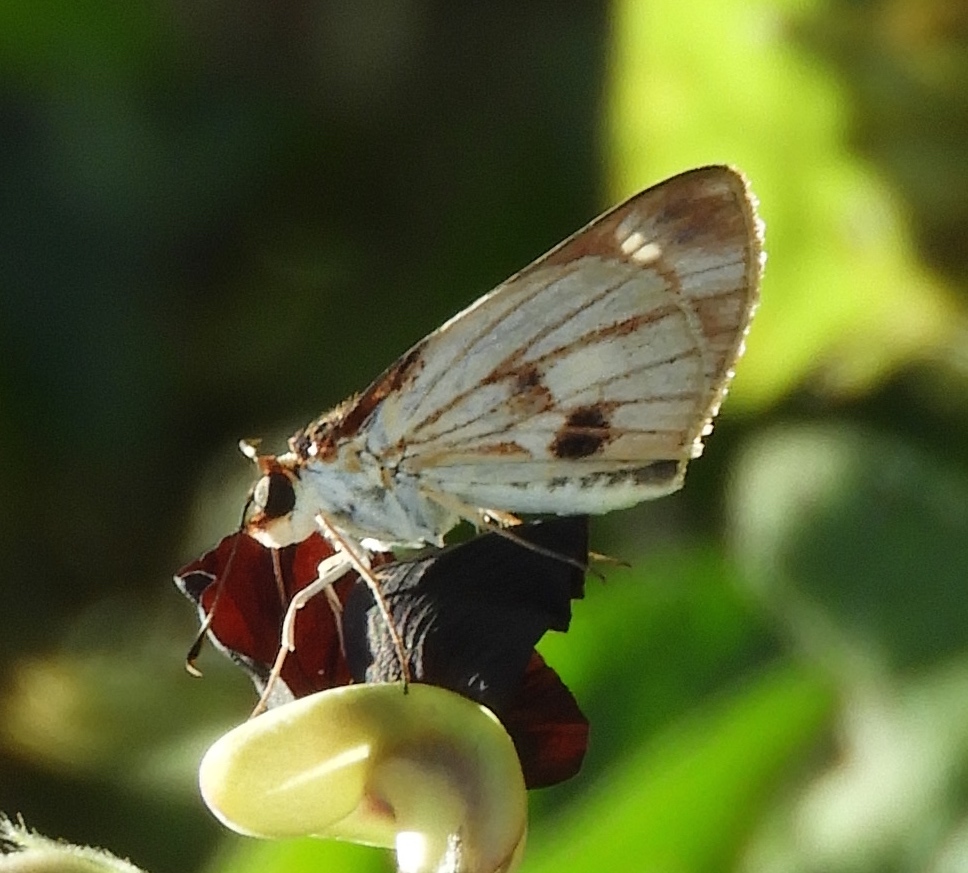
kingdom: Animalia
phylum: Arthropoda
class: Insecta
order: Lepidoptera
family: Hesperiidae
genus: Troyus
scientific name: Troyus fantasos
